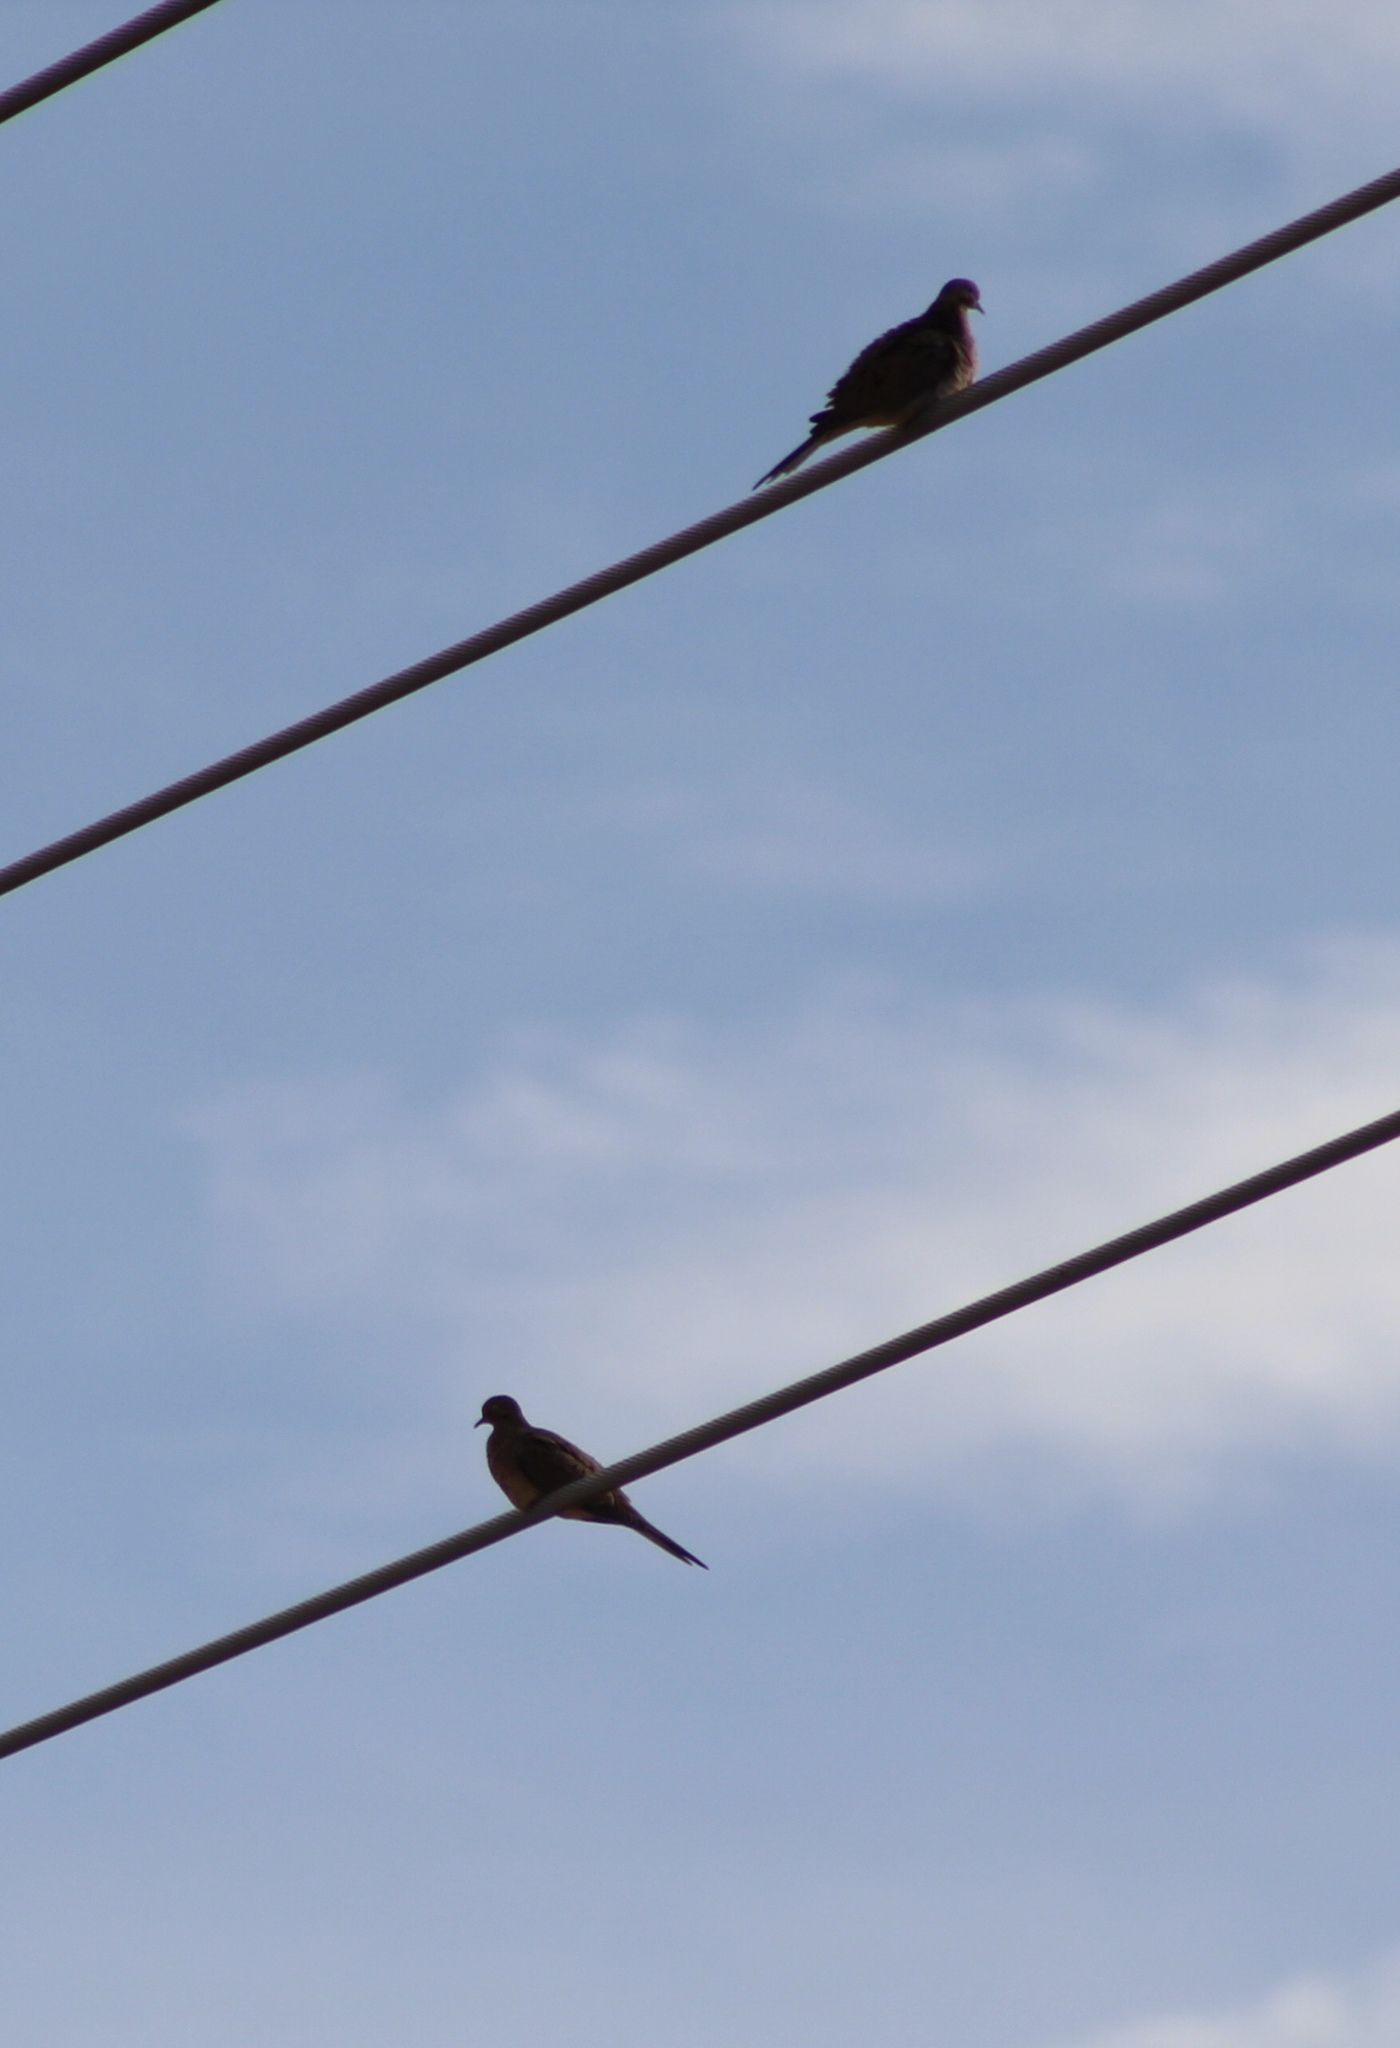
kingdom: Animalia
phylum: Chordata
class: Aves
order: Columbiformes
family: Columbidae
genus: Zenaida
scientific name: Zenaida macroura
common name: Mourning dove
